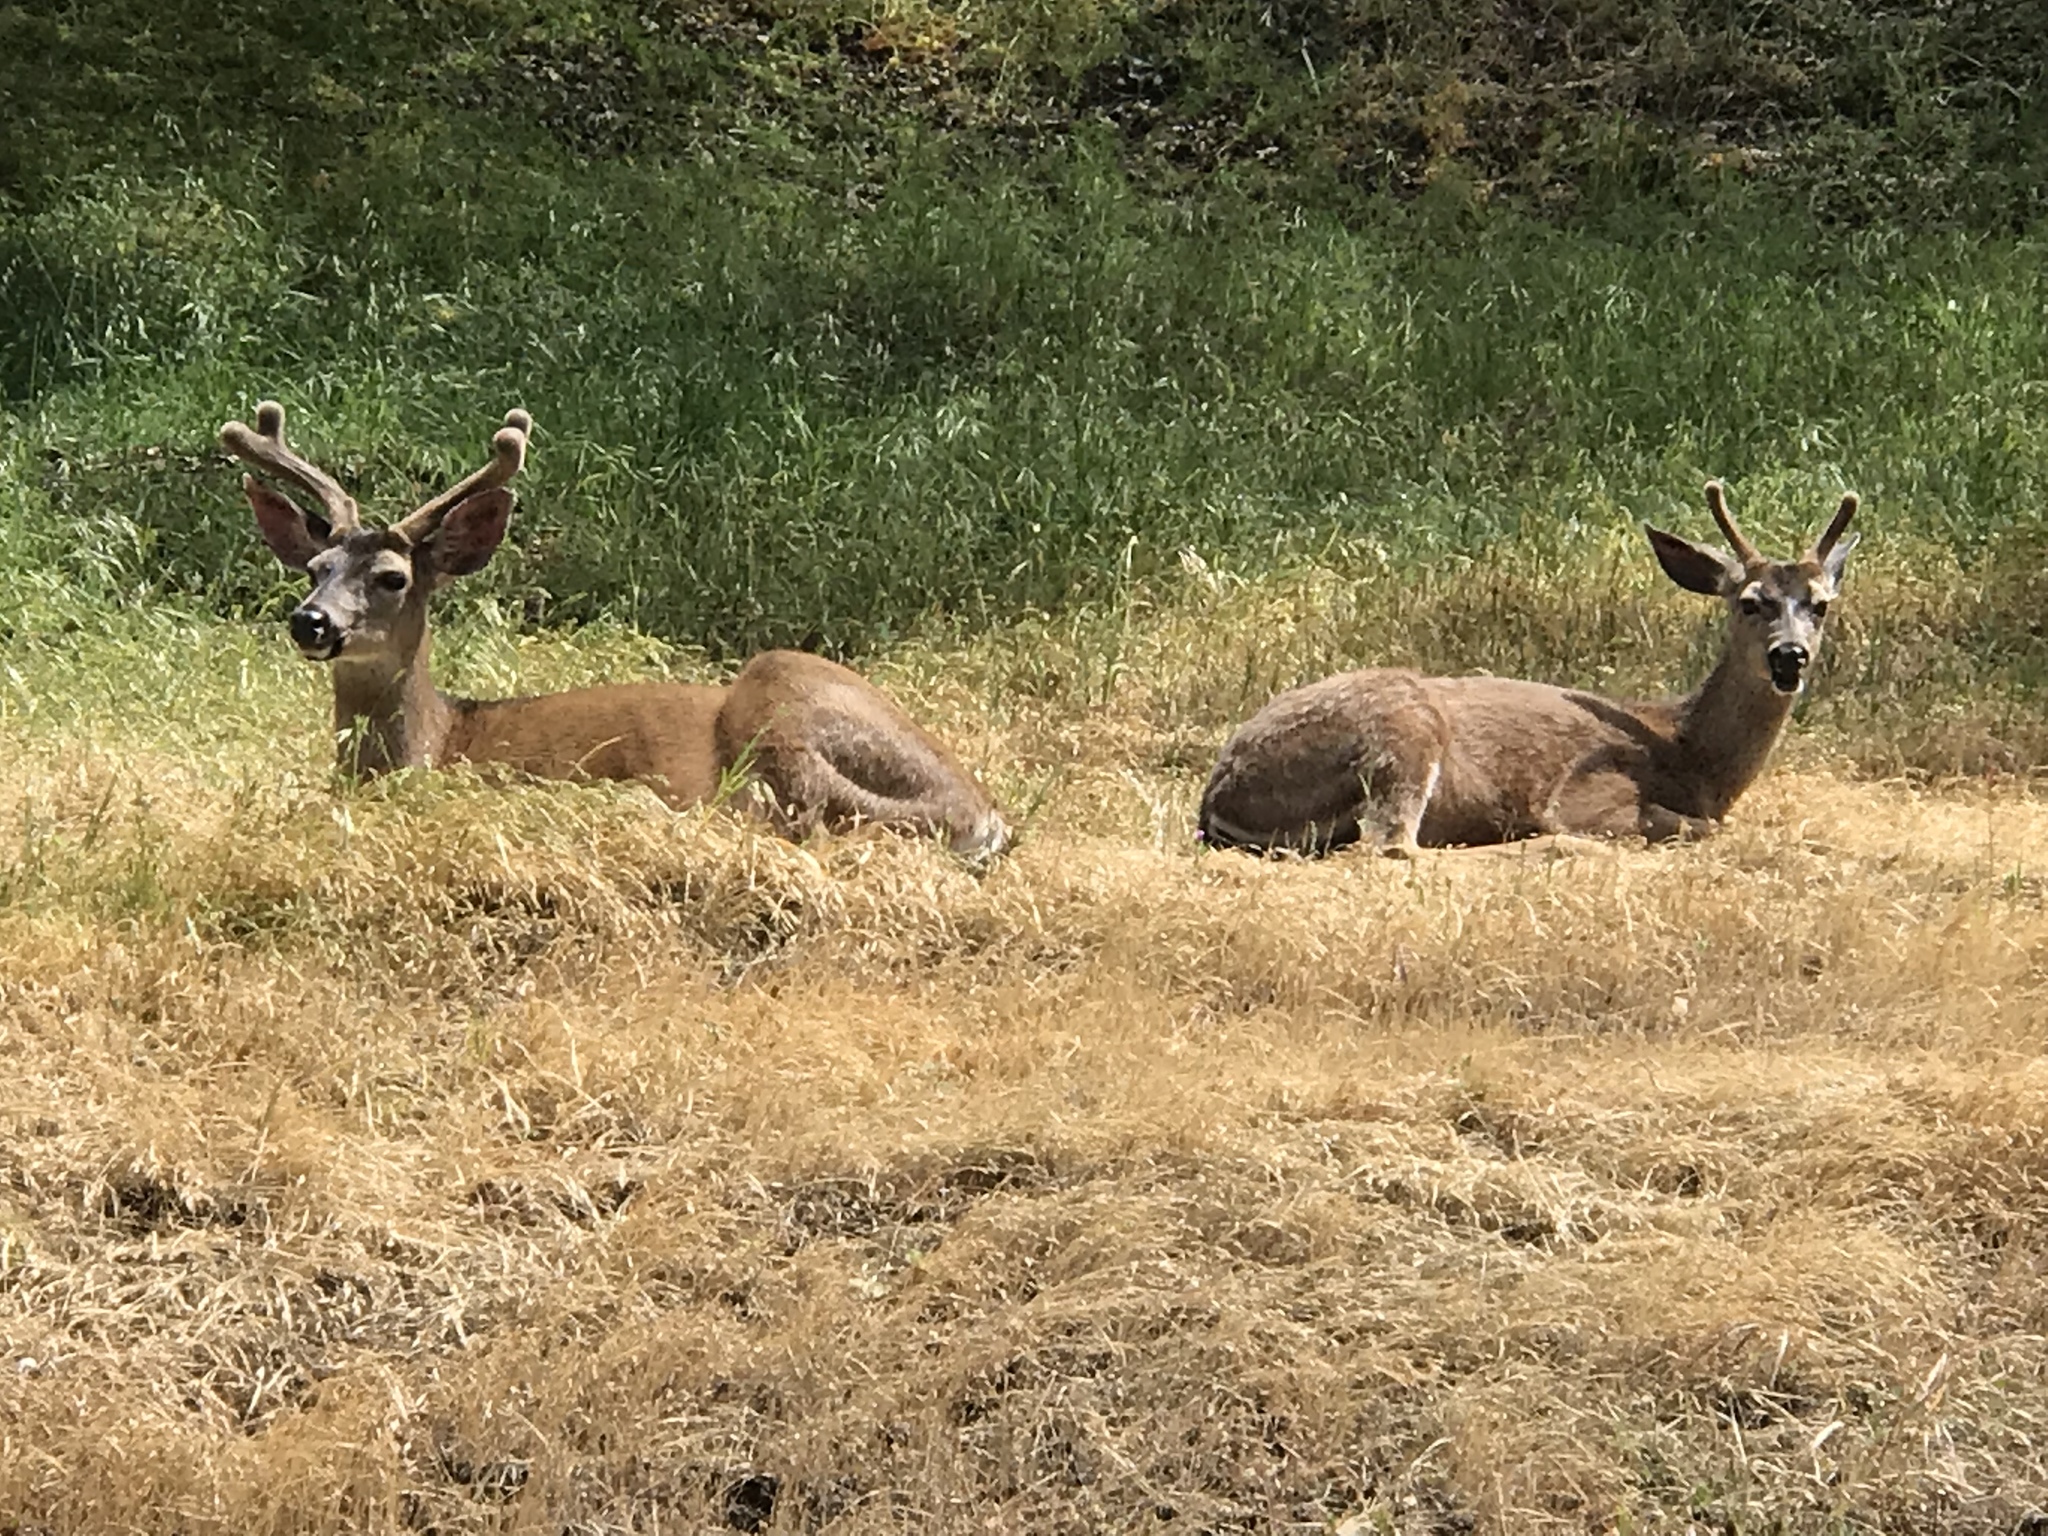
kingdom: Animalia
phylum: Chordata
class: Mammalia
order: Artiodactyla
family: Cervidae
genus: Odocoileus
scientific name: Odocoileus hemionus
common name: Mule deer
